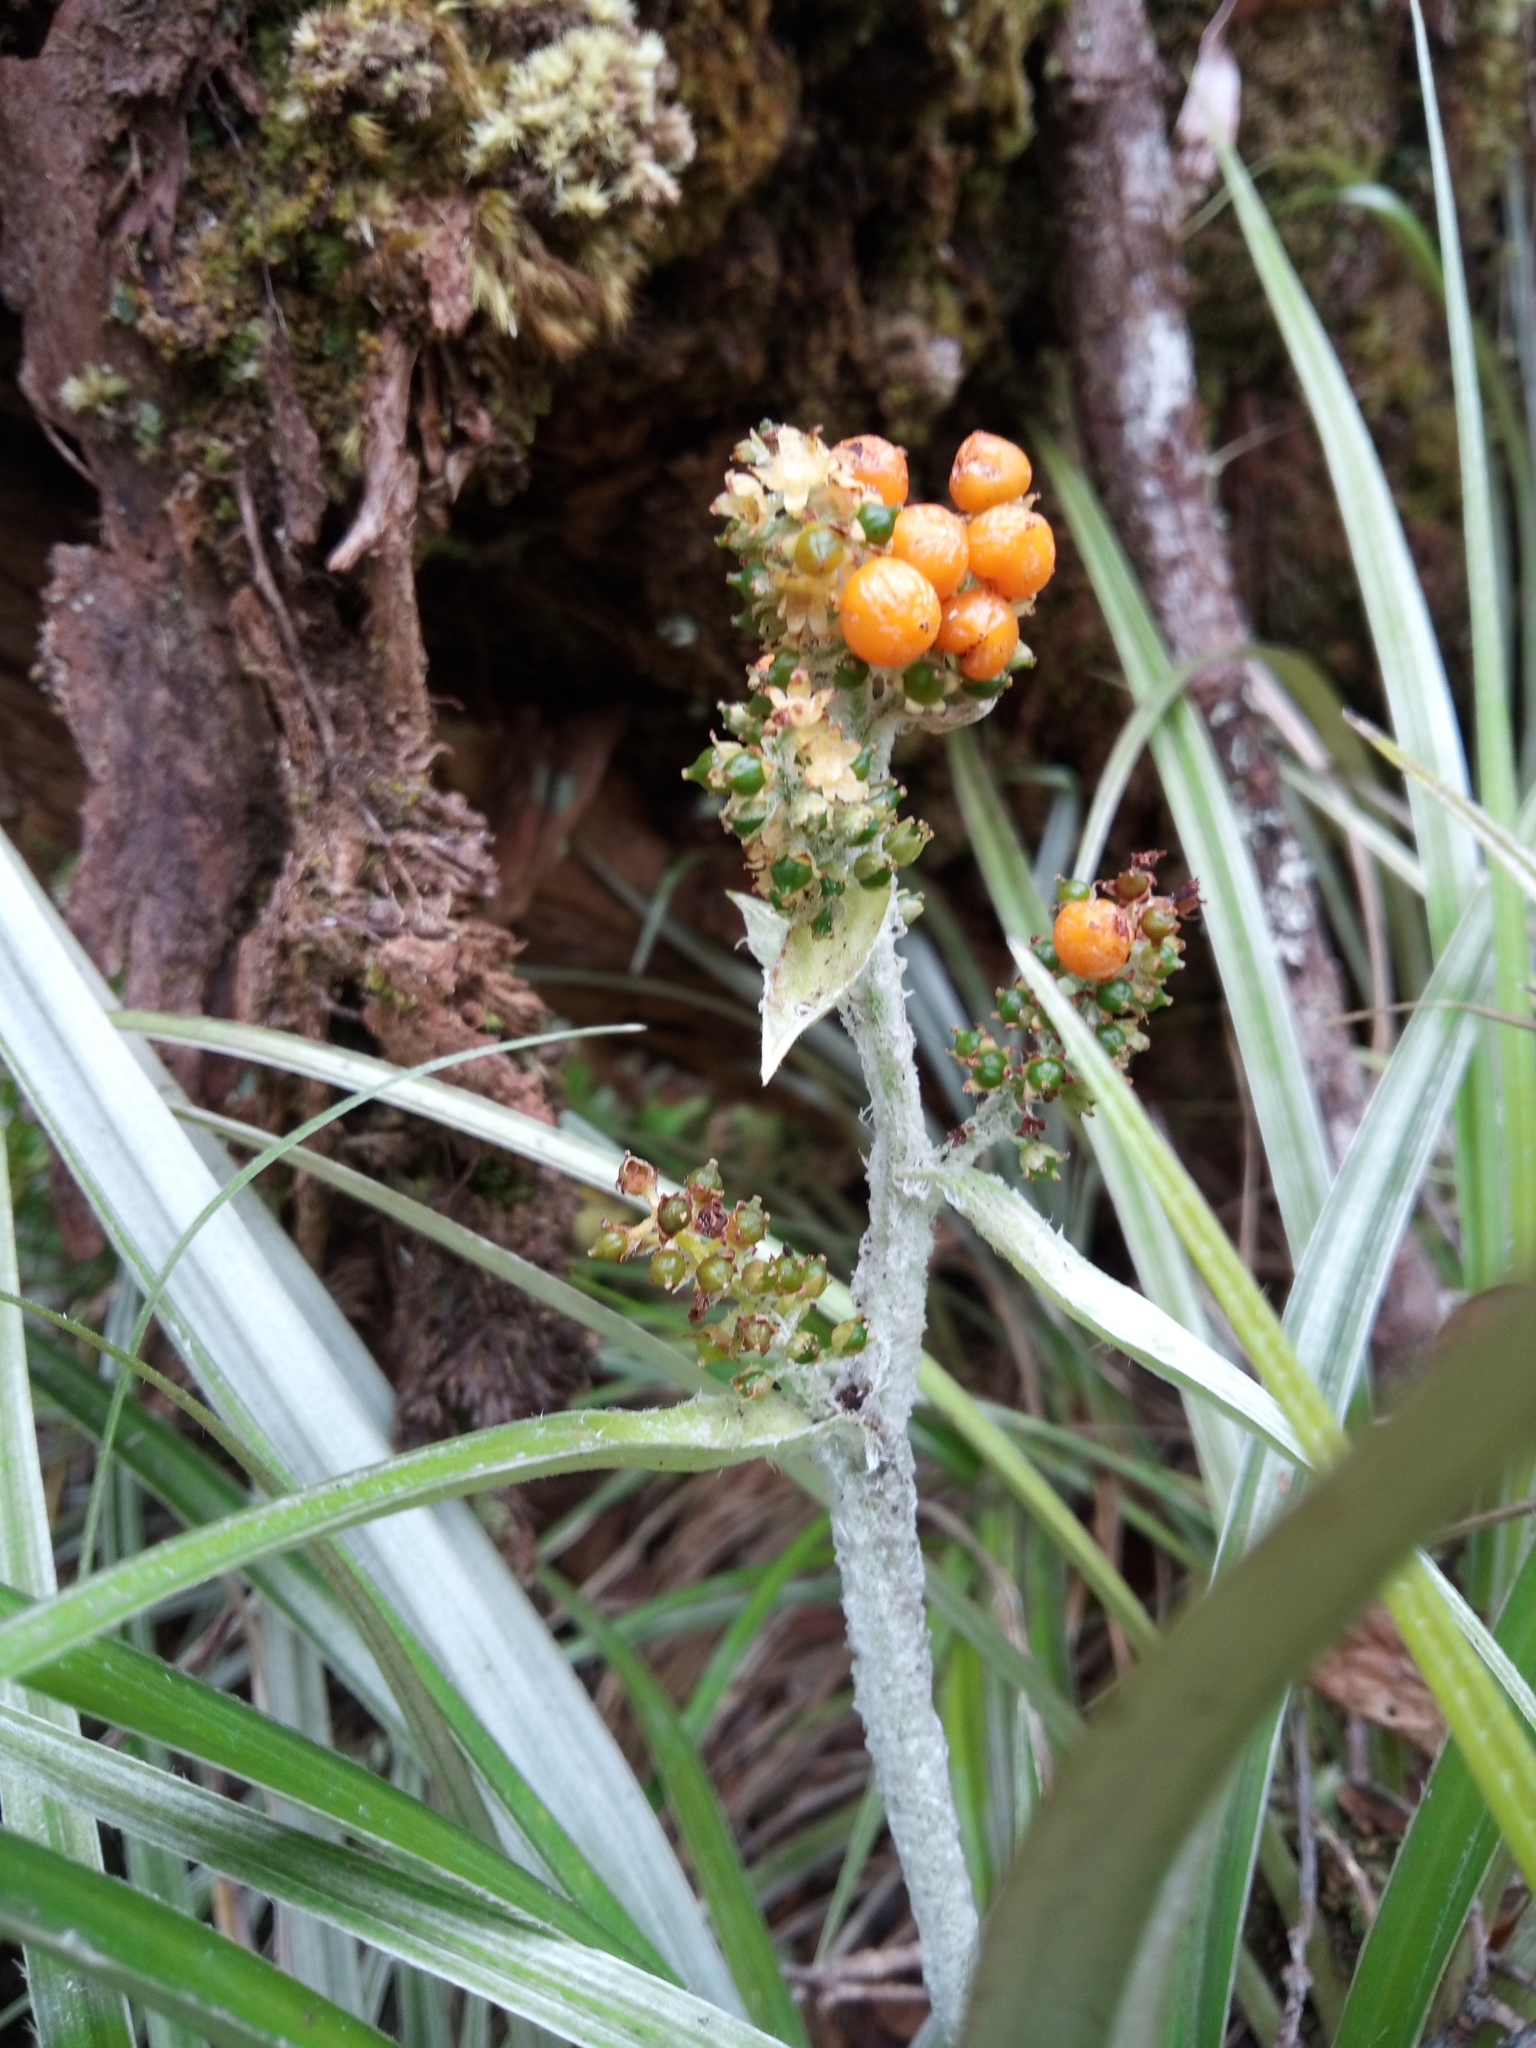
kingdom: Plantae
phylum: Tracheophyta
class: Liliopsida
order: Asparagales
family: Asteliaceae
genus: Astelia
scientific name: Astelia argyrocoma
